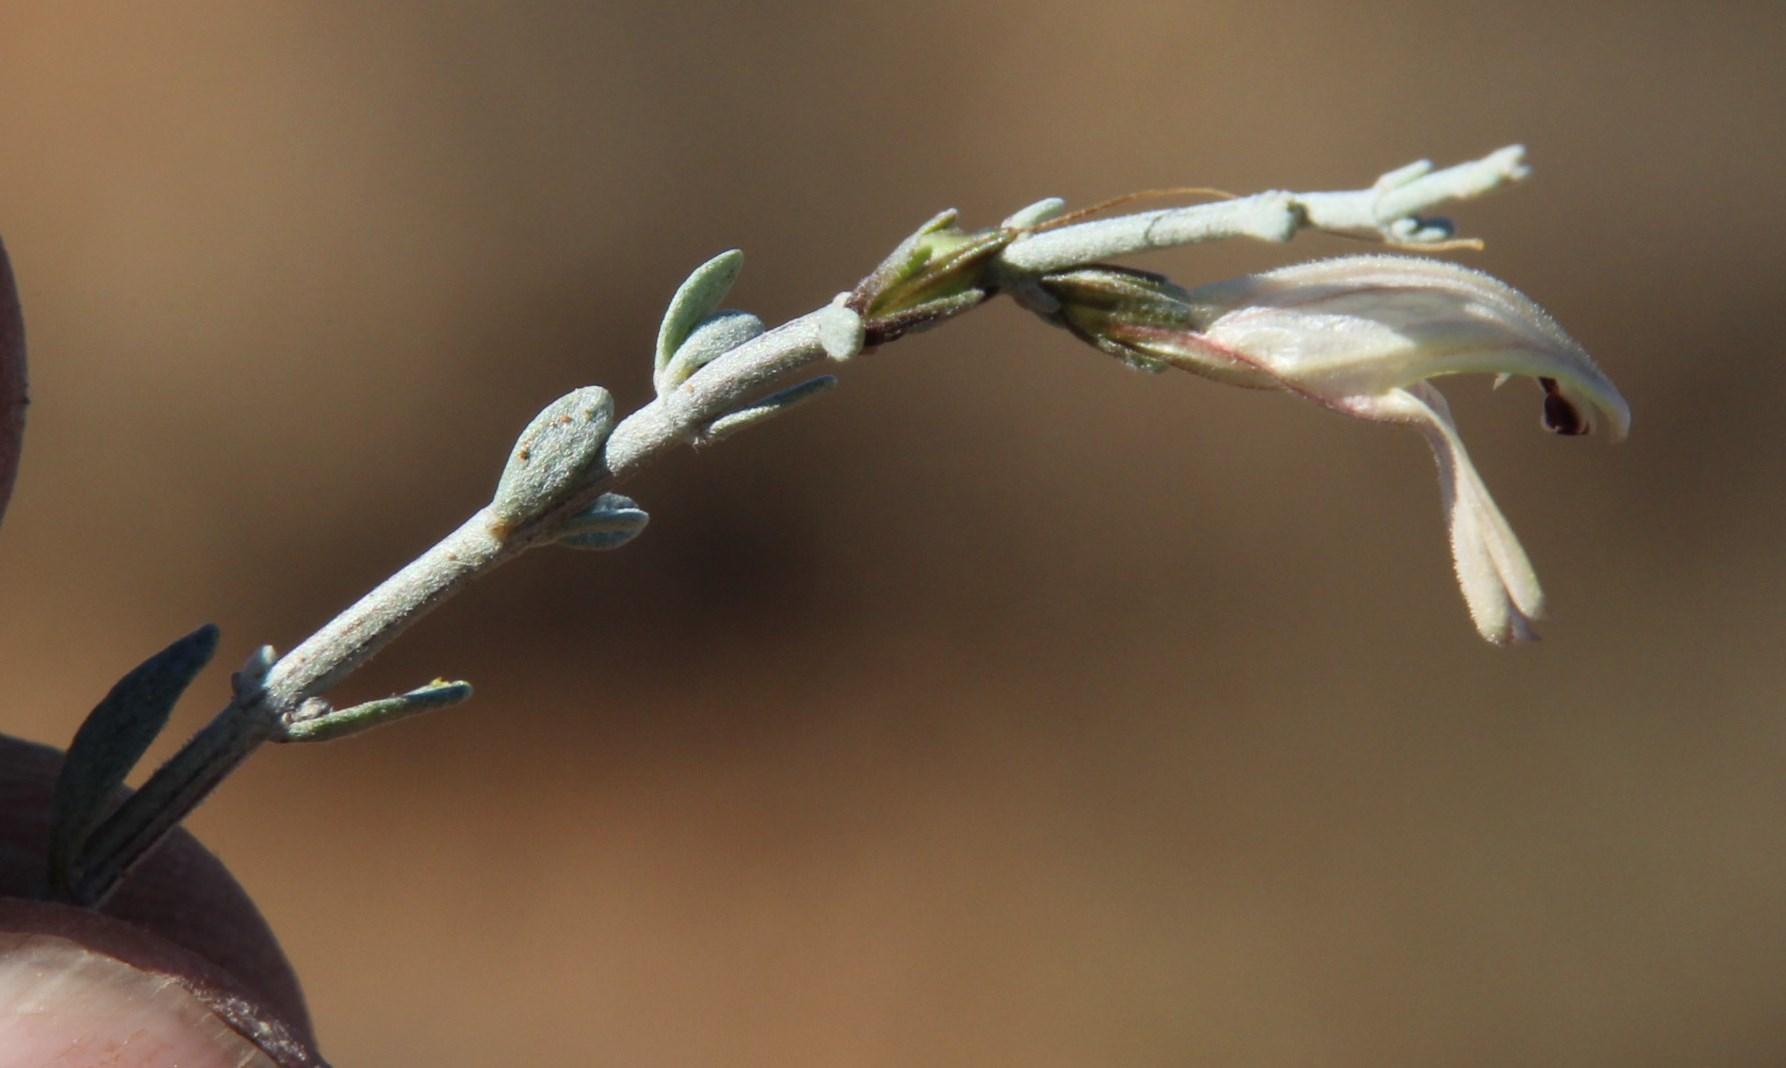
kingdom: Plantae
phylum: Tracheophyta
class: Magnoliopsida
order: Lamiales
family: Acanthaceae
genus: Pogonospermum
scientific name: Pogonospermum
